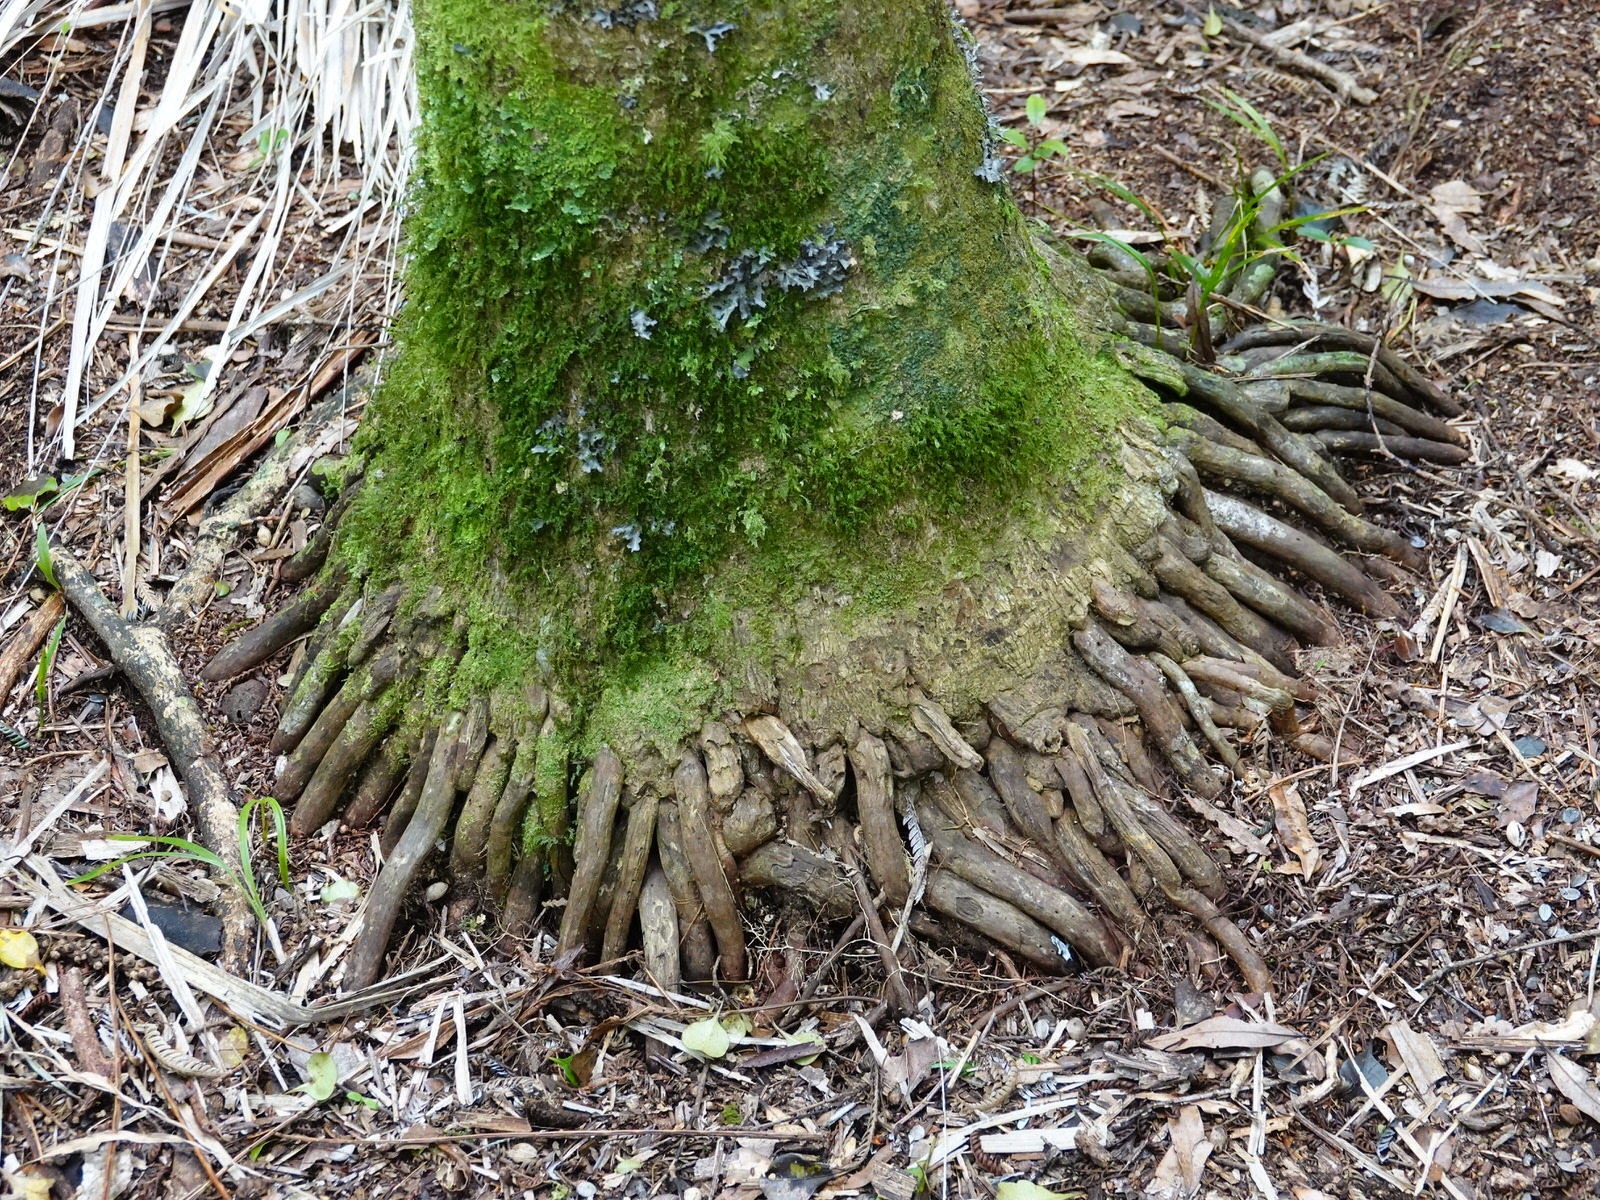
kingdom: Plantae
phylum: Tracheophyta
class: Liliopsida
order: Arecales
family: Arecaceae
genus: Rhopalostylis
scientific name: Rhopalostylis sapida
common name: Feather-duster palm
